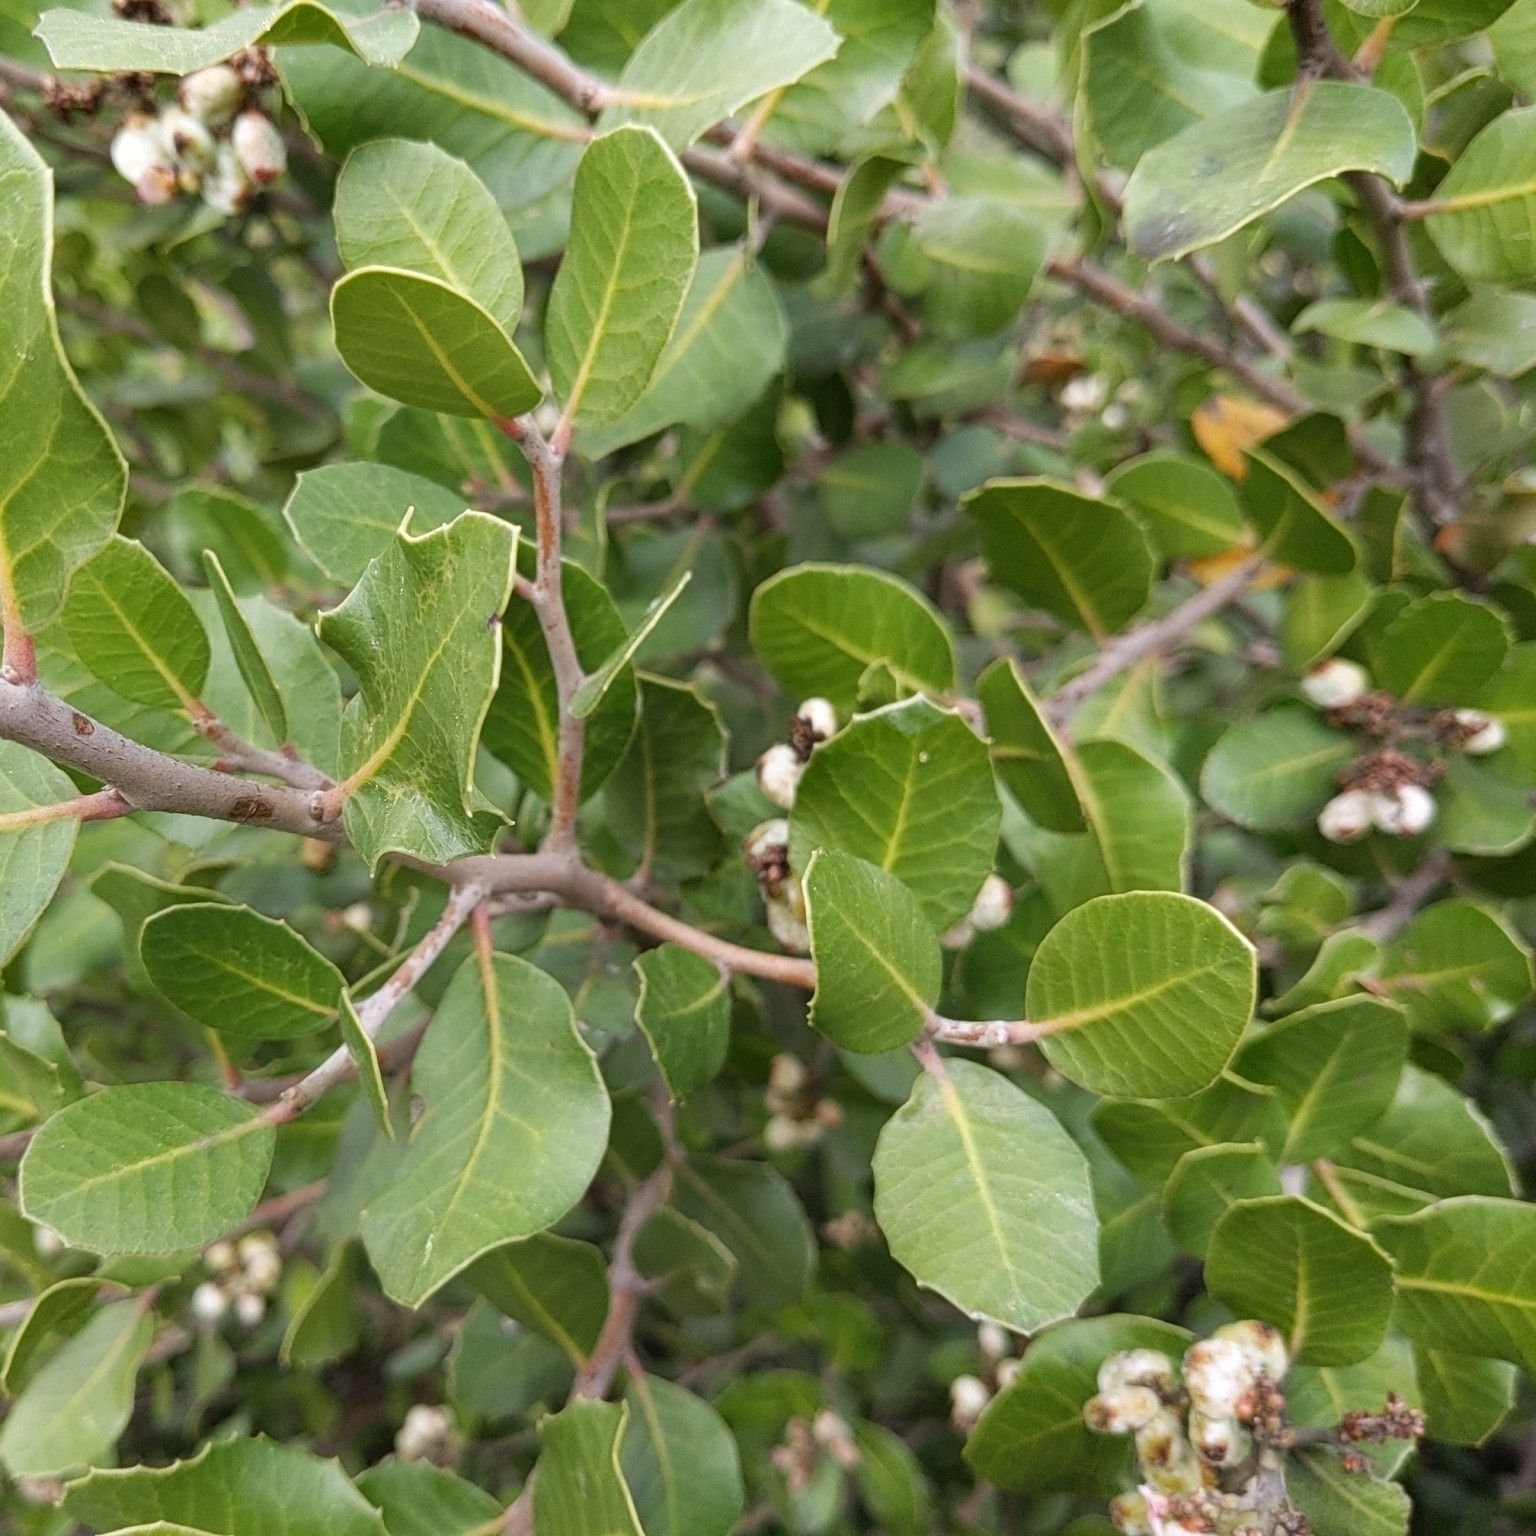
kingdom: Plantae
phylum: Tracheophyta
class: Magnoliopsida
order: Sapindales
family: Anacardiaceae
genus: Rhus
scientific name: Rhus integrifolia
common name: Lemonade sumac
